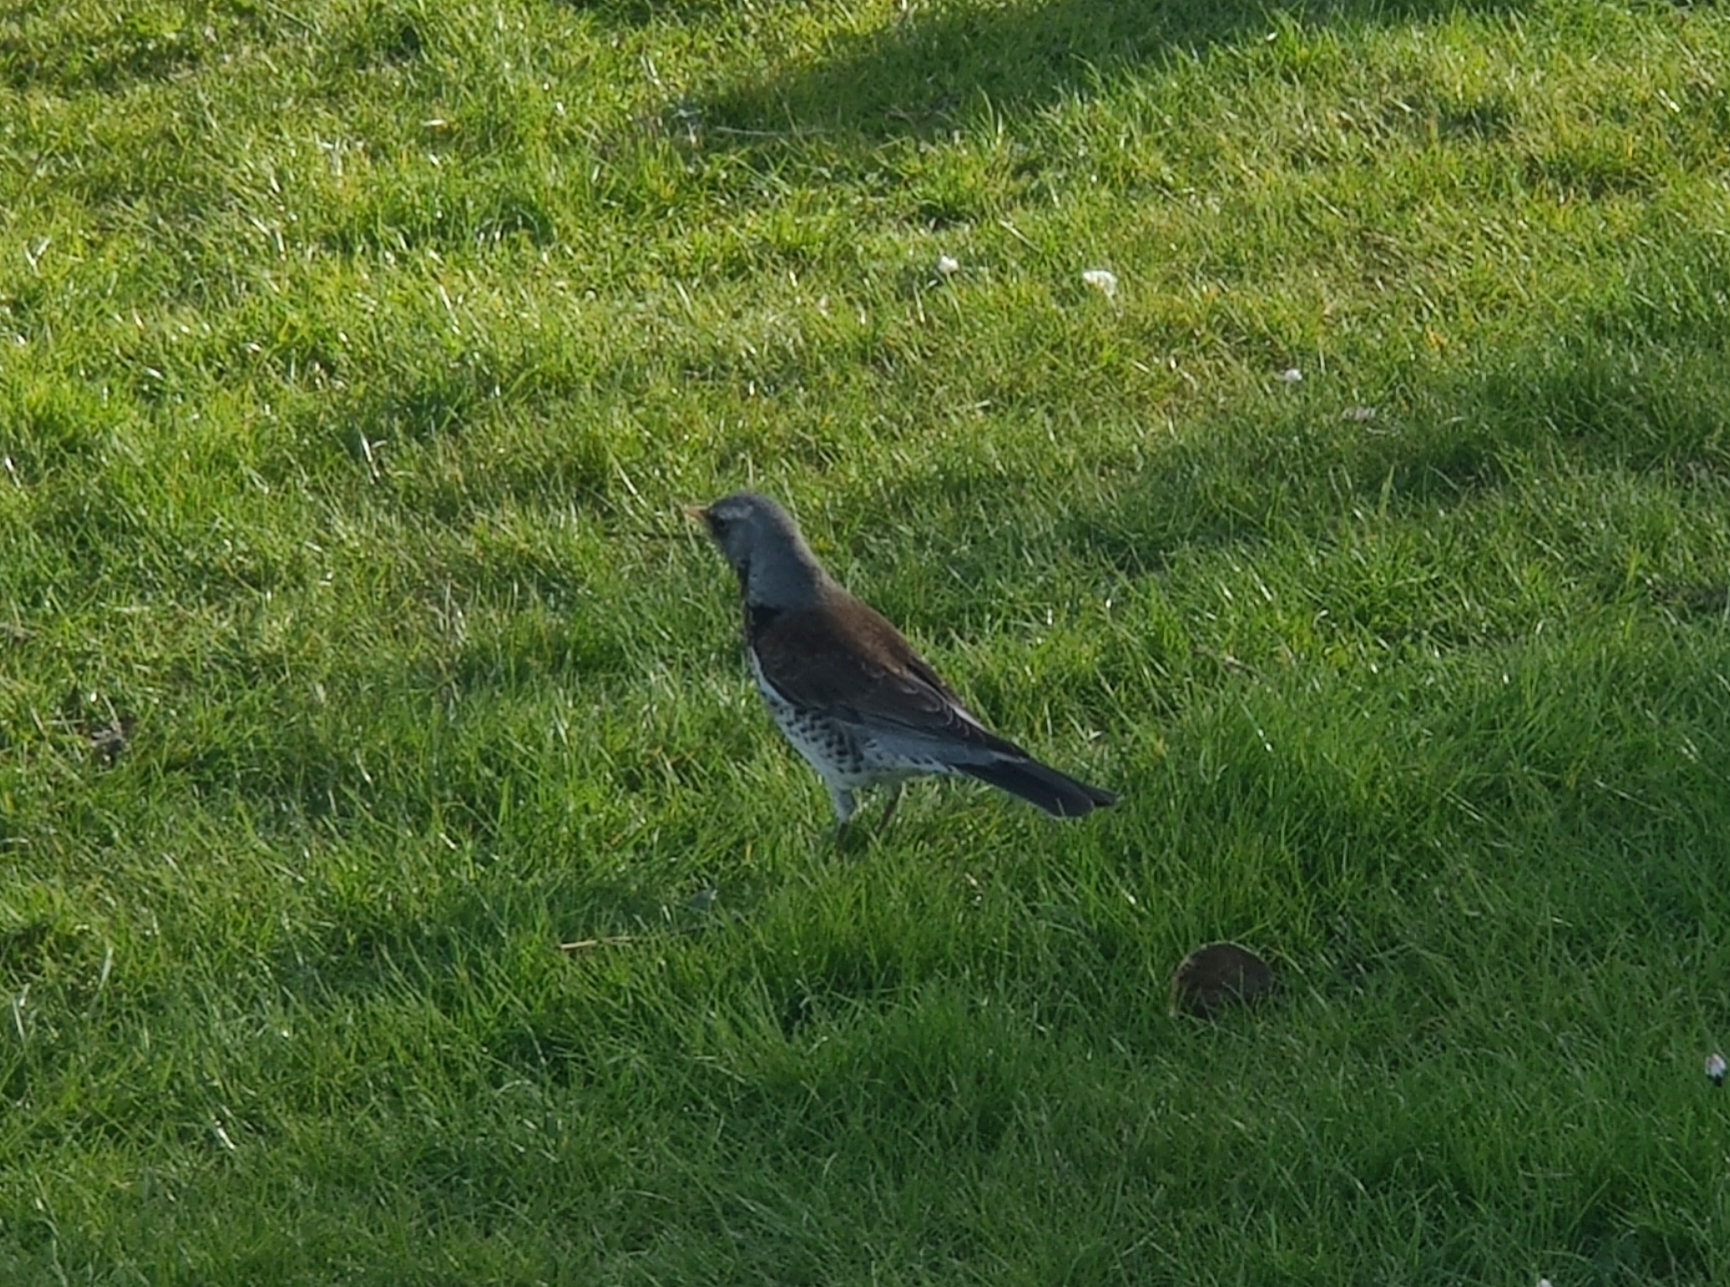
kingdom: Animalia
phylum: Chordata
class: Aves
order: Passeriformes
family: Turdidae
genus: Turdus
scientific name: Turdus pilaris
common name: Fieldfare
